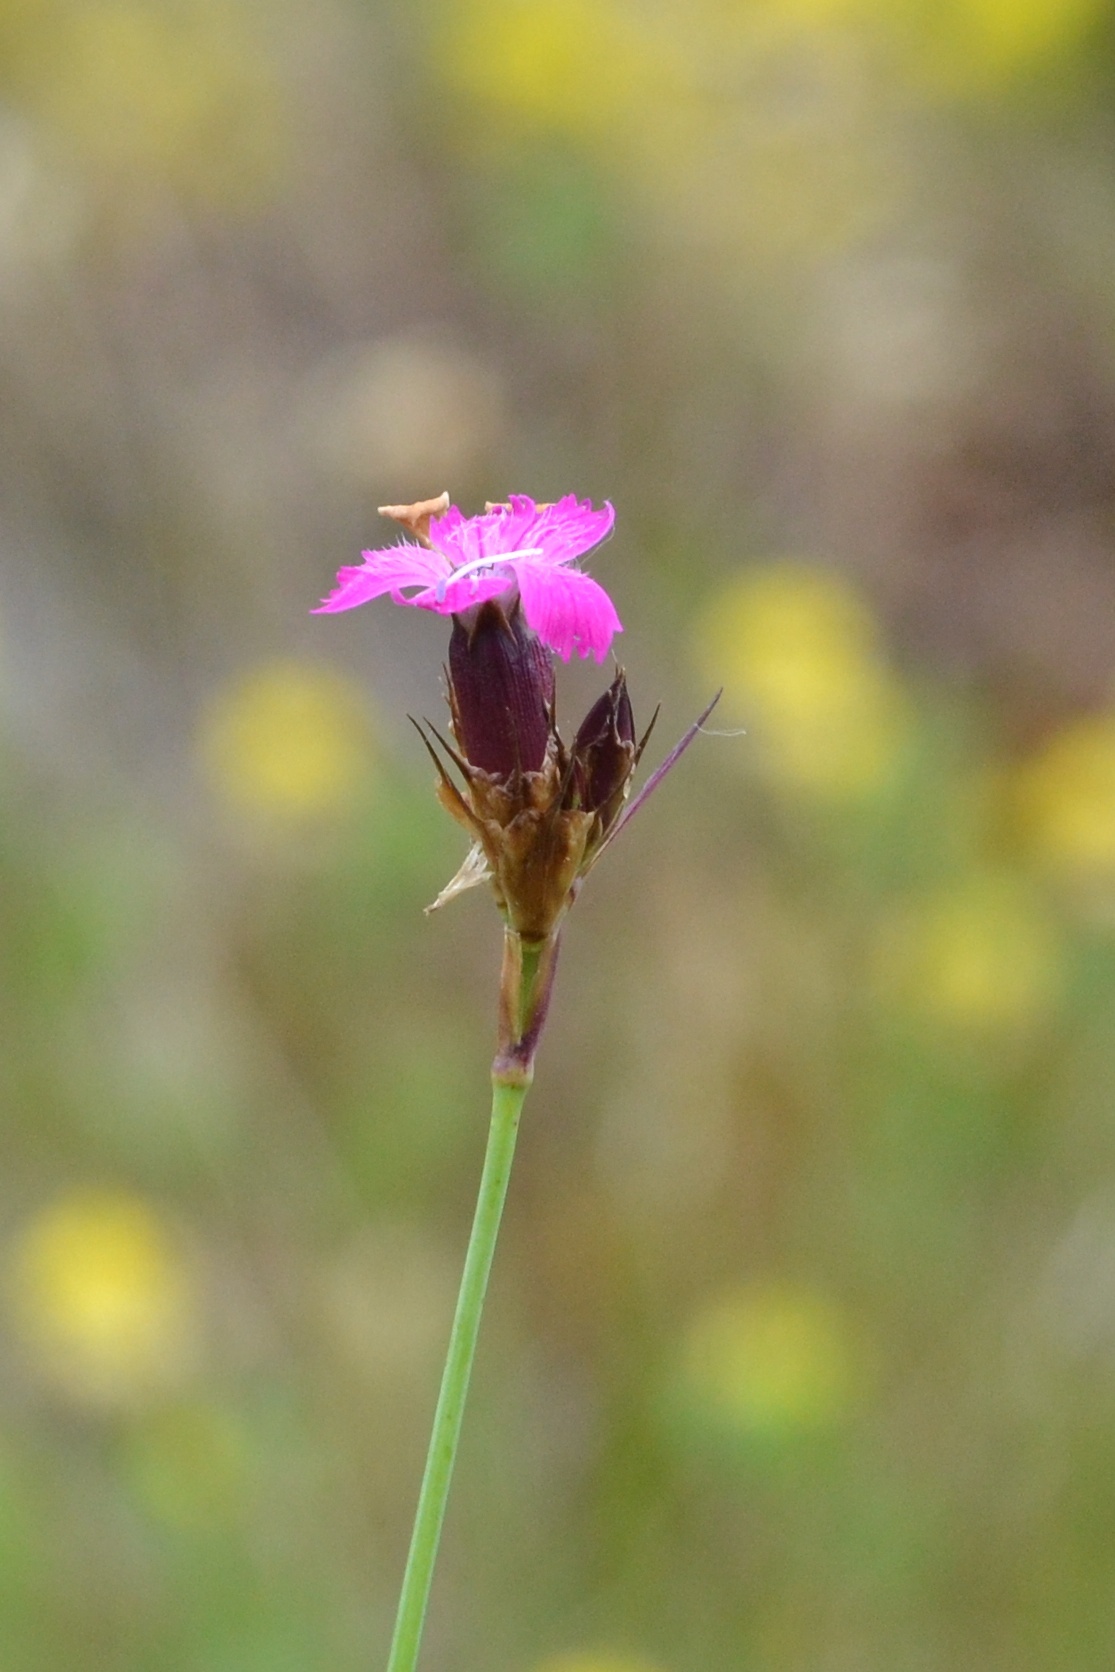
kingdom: Plantae
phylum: Tracheophyta
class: Magnoliopsida
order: Caryophyllales
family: Caryophyllaceae
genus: Dianthus
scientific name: Dianthus carthusianorum
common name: Carthusian pink
